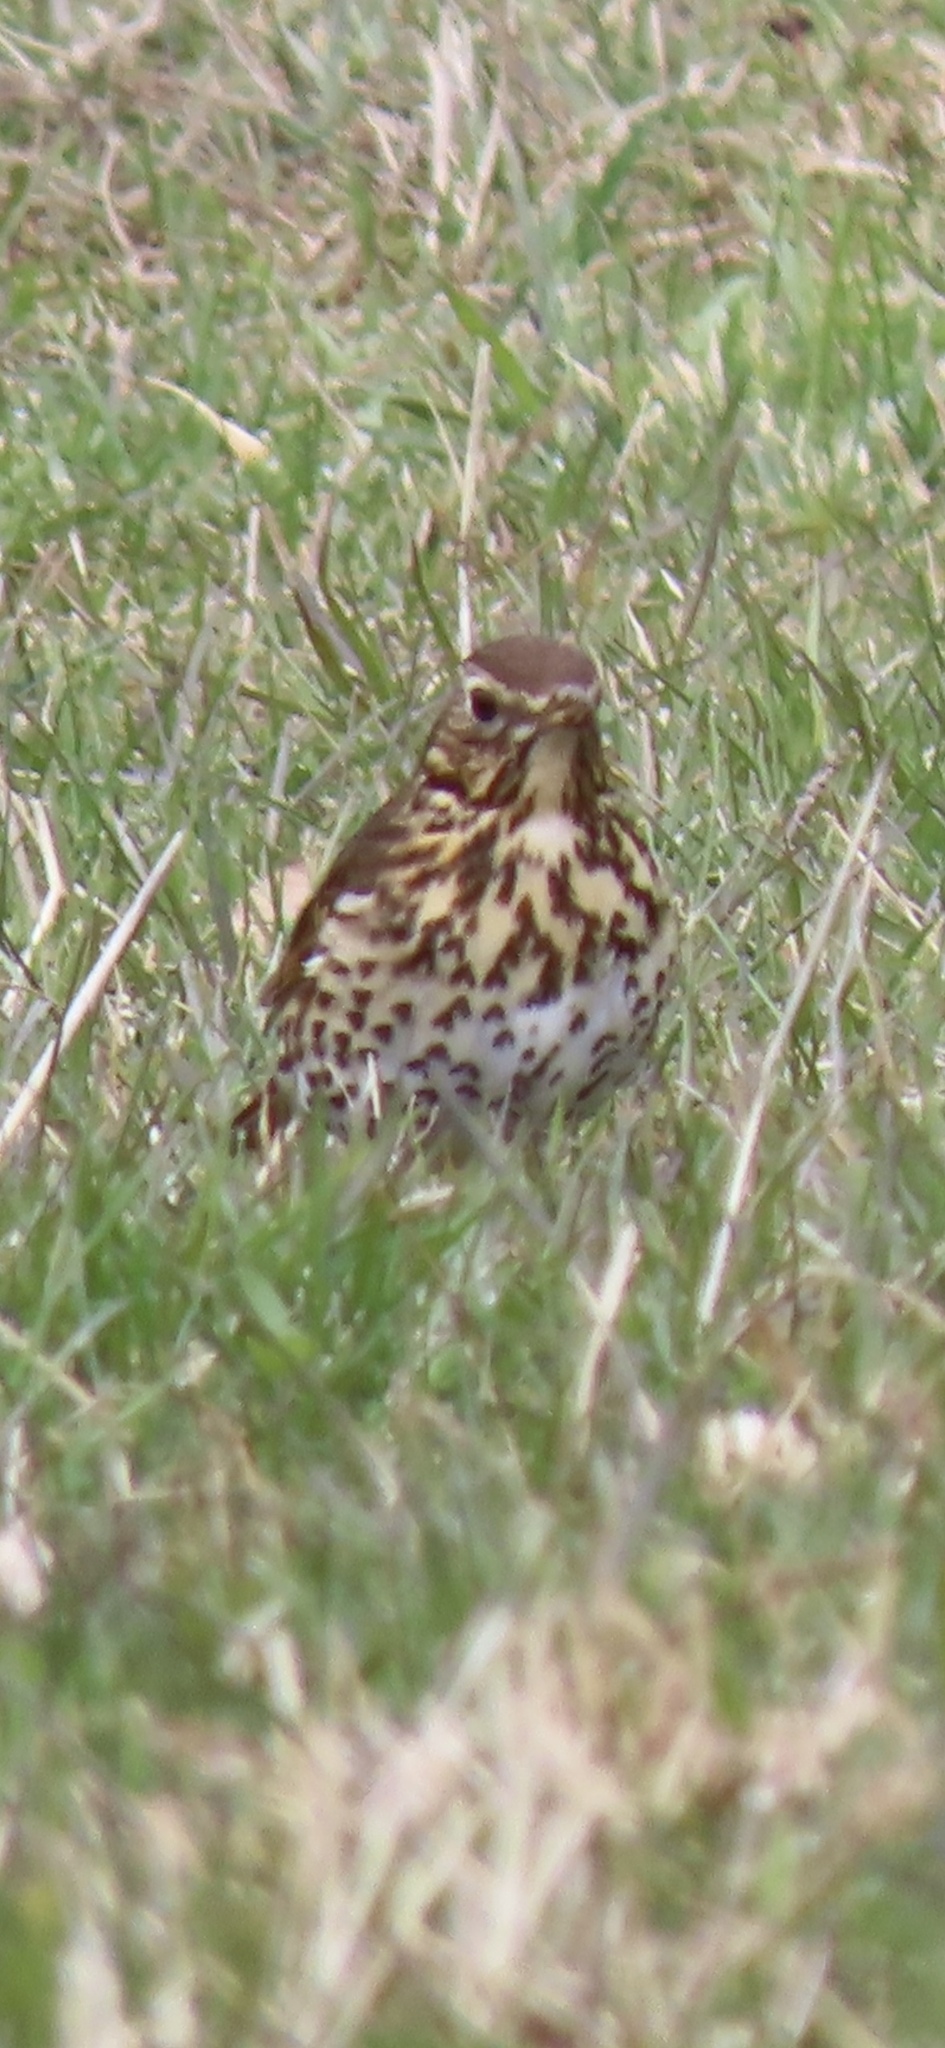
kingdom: Animalia
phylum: Chordata
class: Aves
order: Passeriformes
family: Turdidae
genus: Turdus
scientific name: Turdus philomelos
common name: Song thrush
